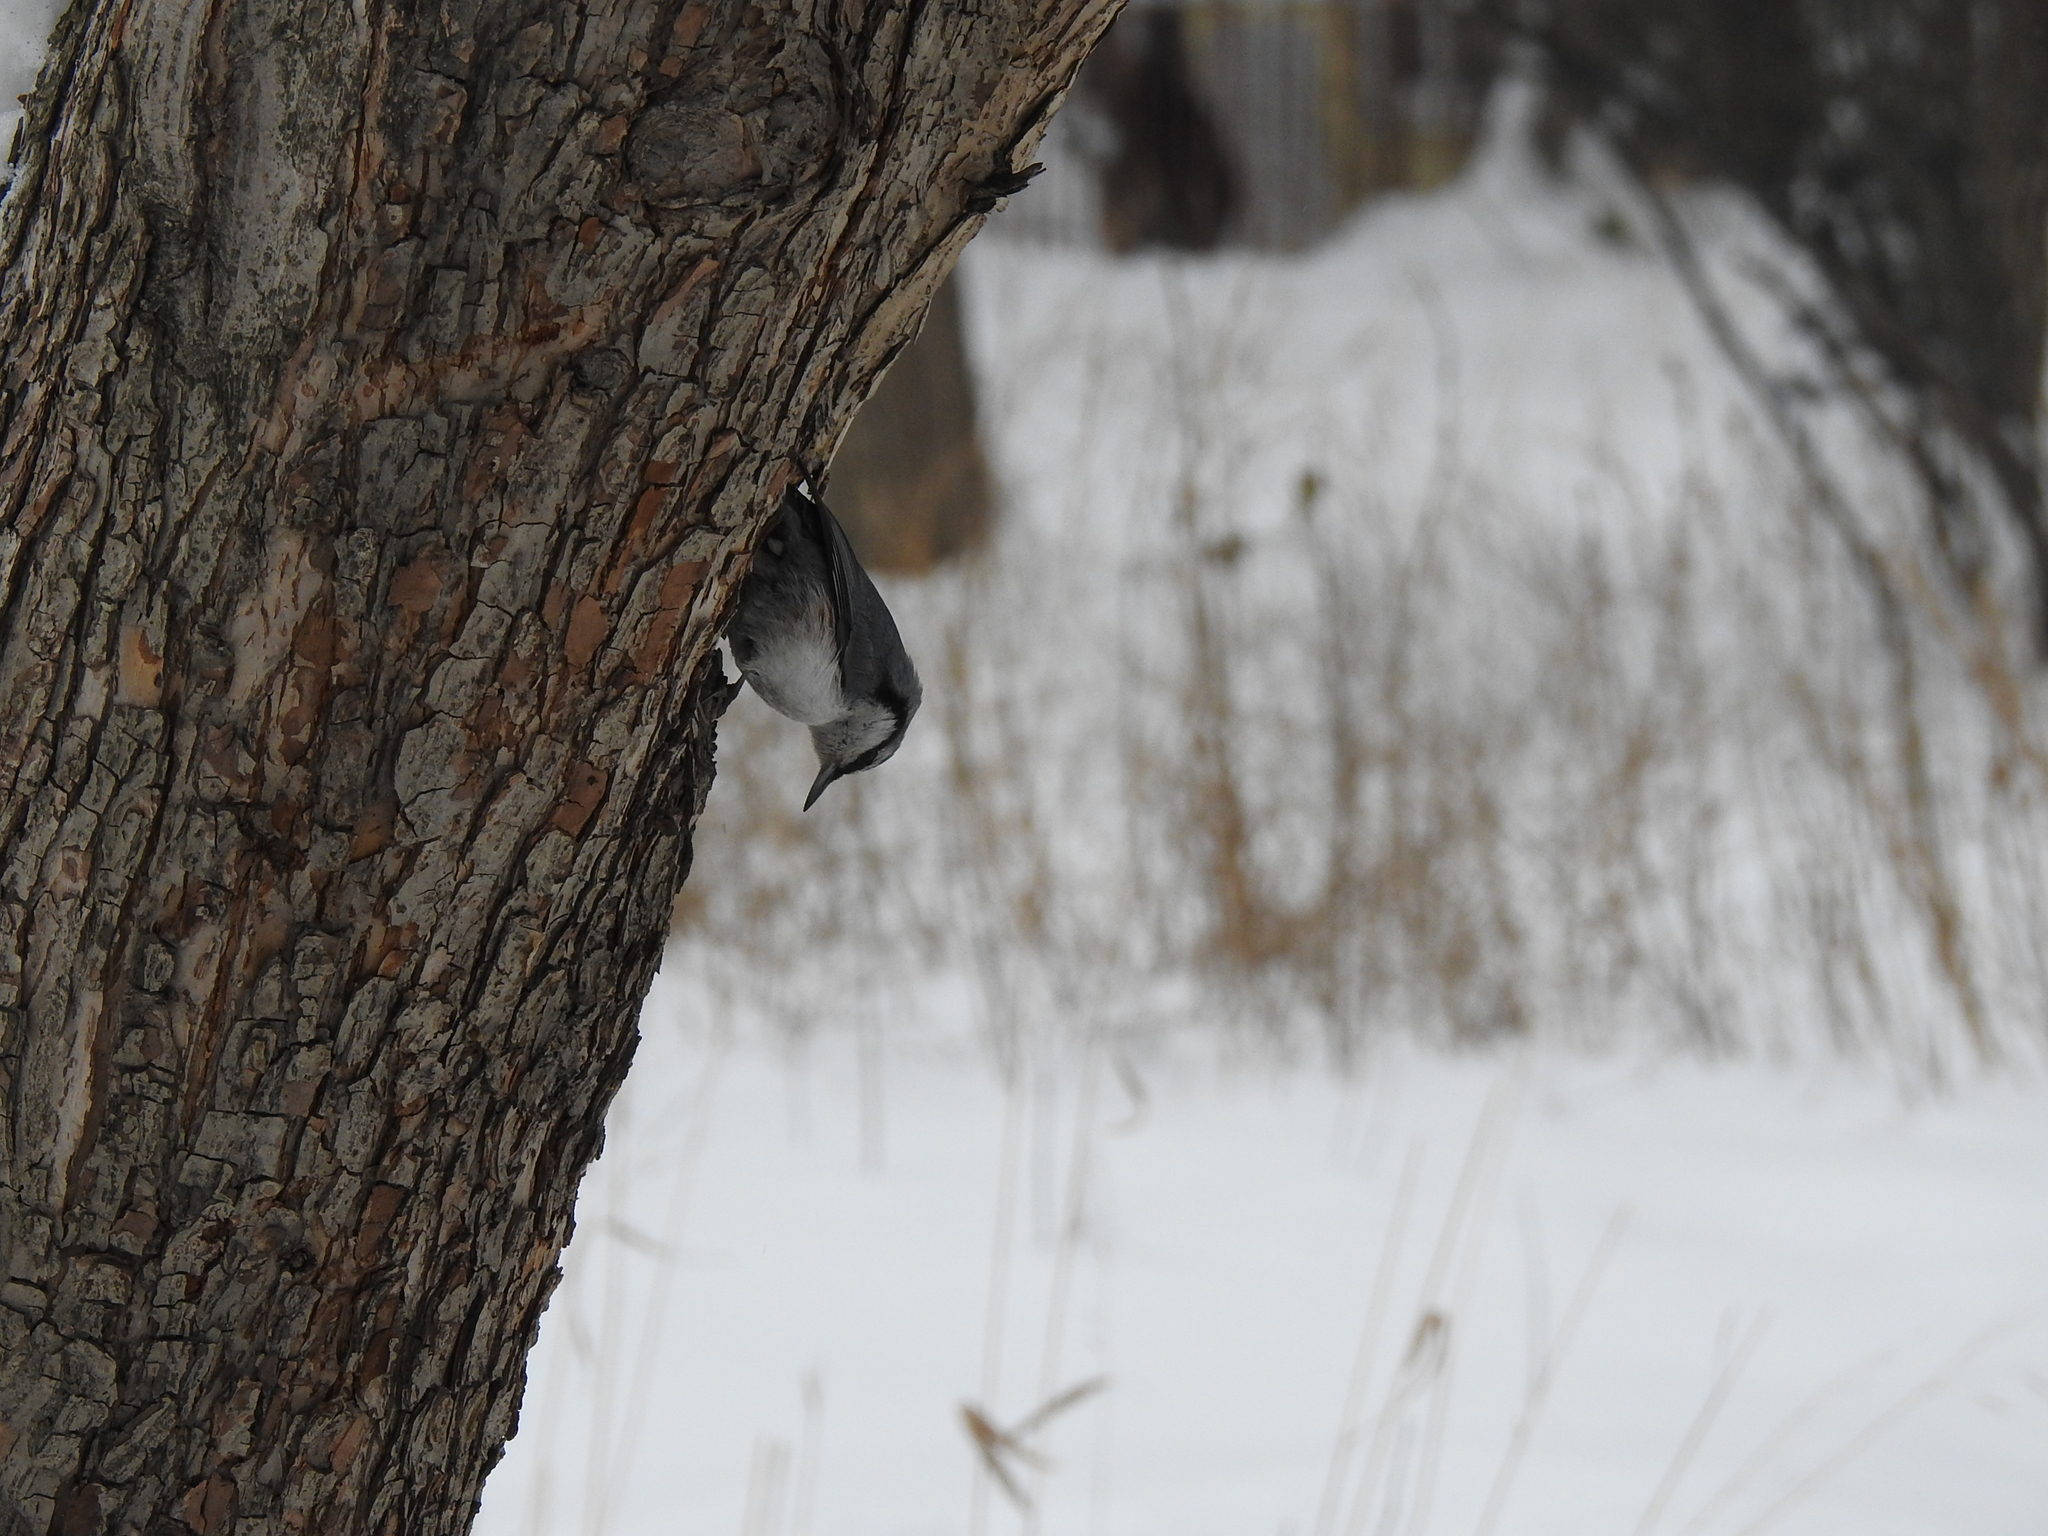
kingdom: Animalia
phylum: Chordata
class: Aves
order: Passeriformes
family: Sittidae
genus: Sitta
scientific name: Sitta europaea
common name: Eurasian nuthatch
